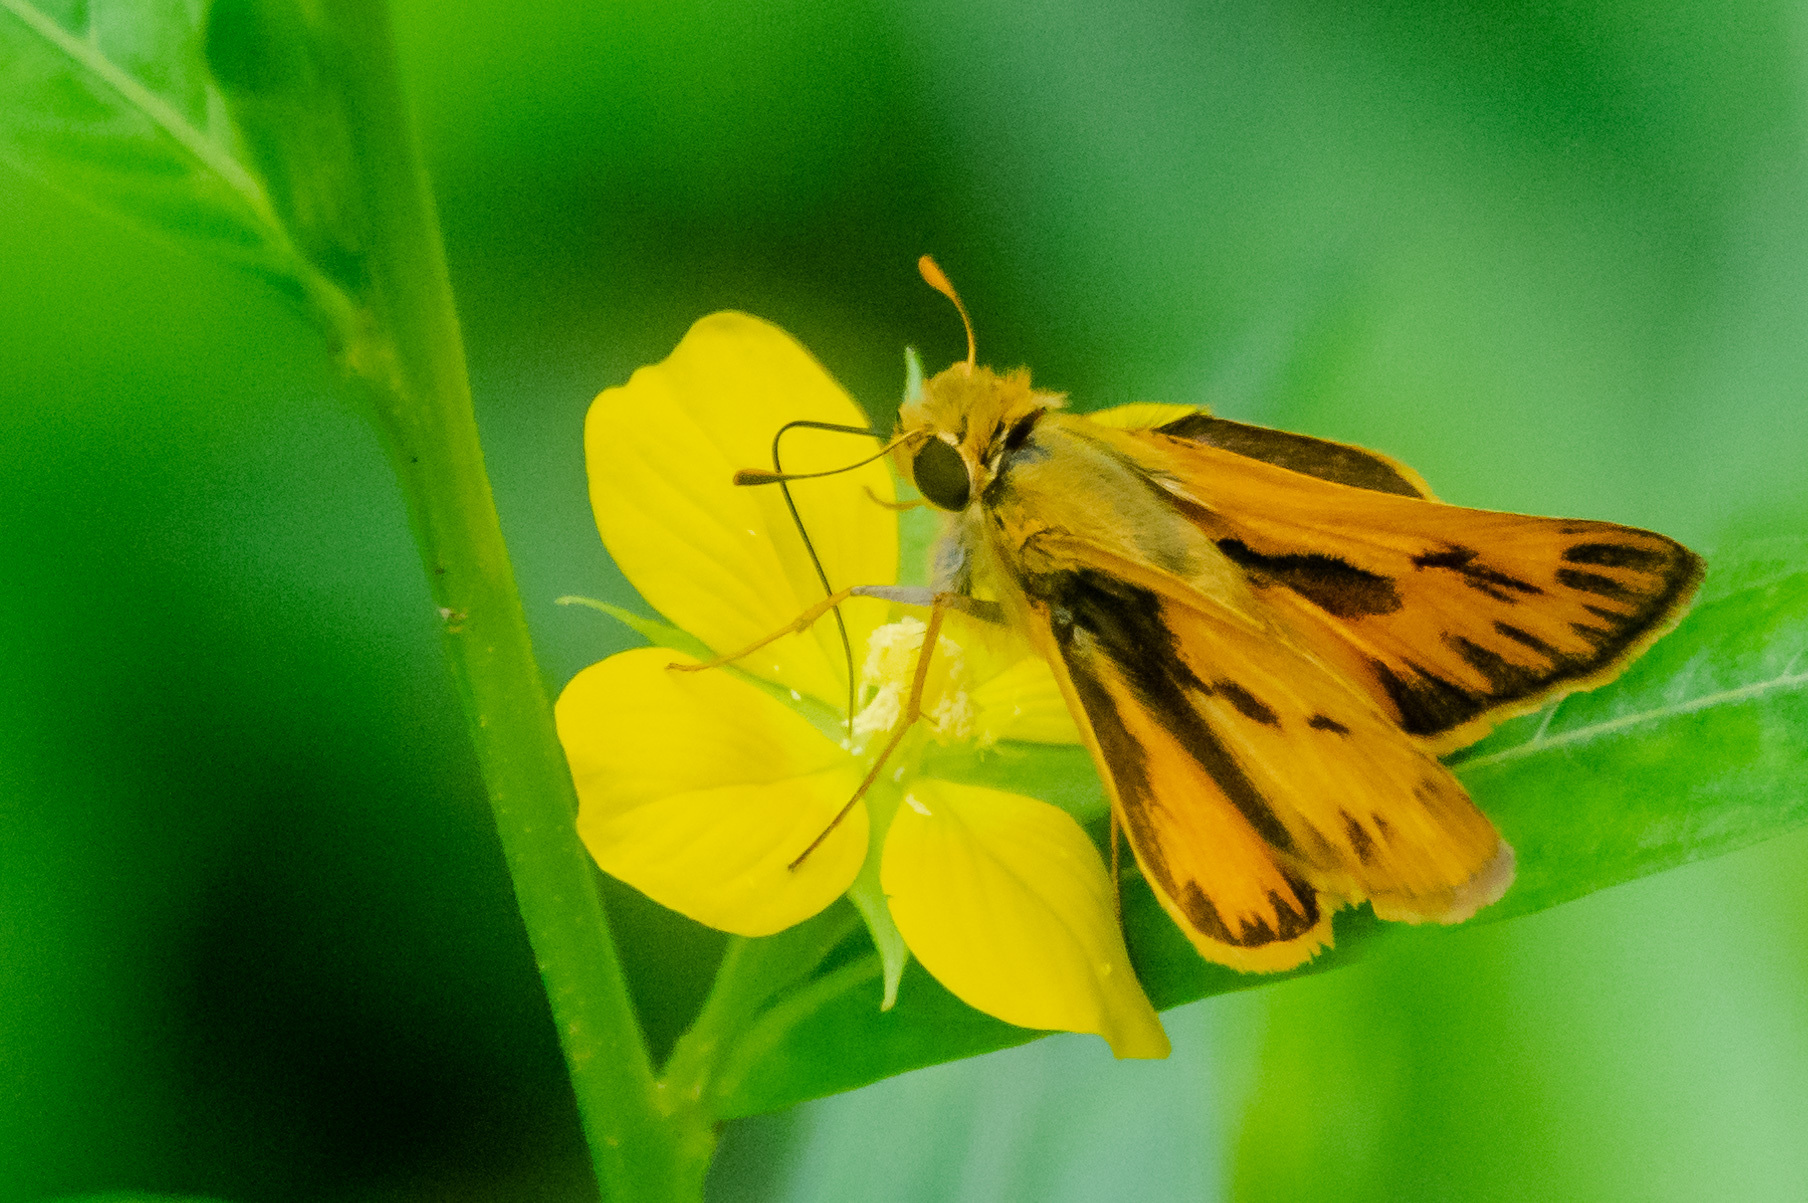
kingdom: Animalia
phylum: Arthropoda
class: Insecta
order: Lepidoptera
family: Hesperiidae
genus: Hylephila
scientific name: Hylephila phyleus
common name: Fiery skipper
